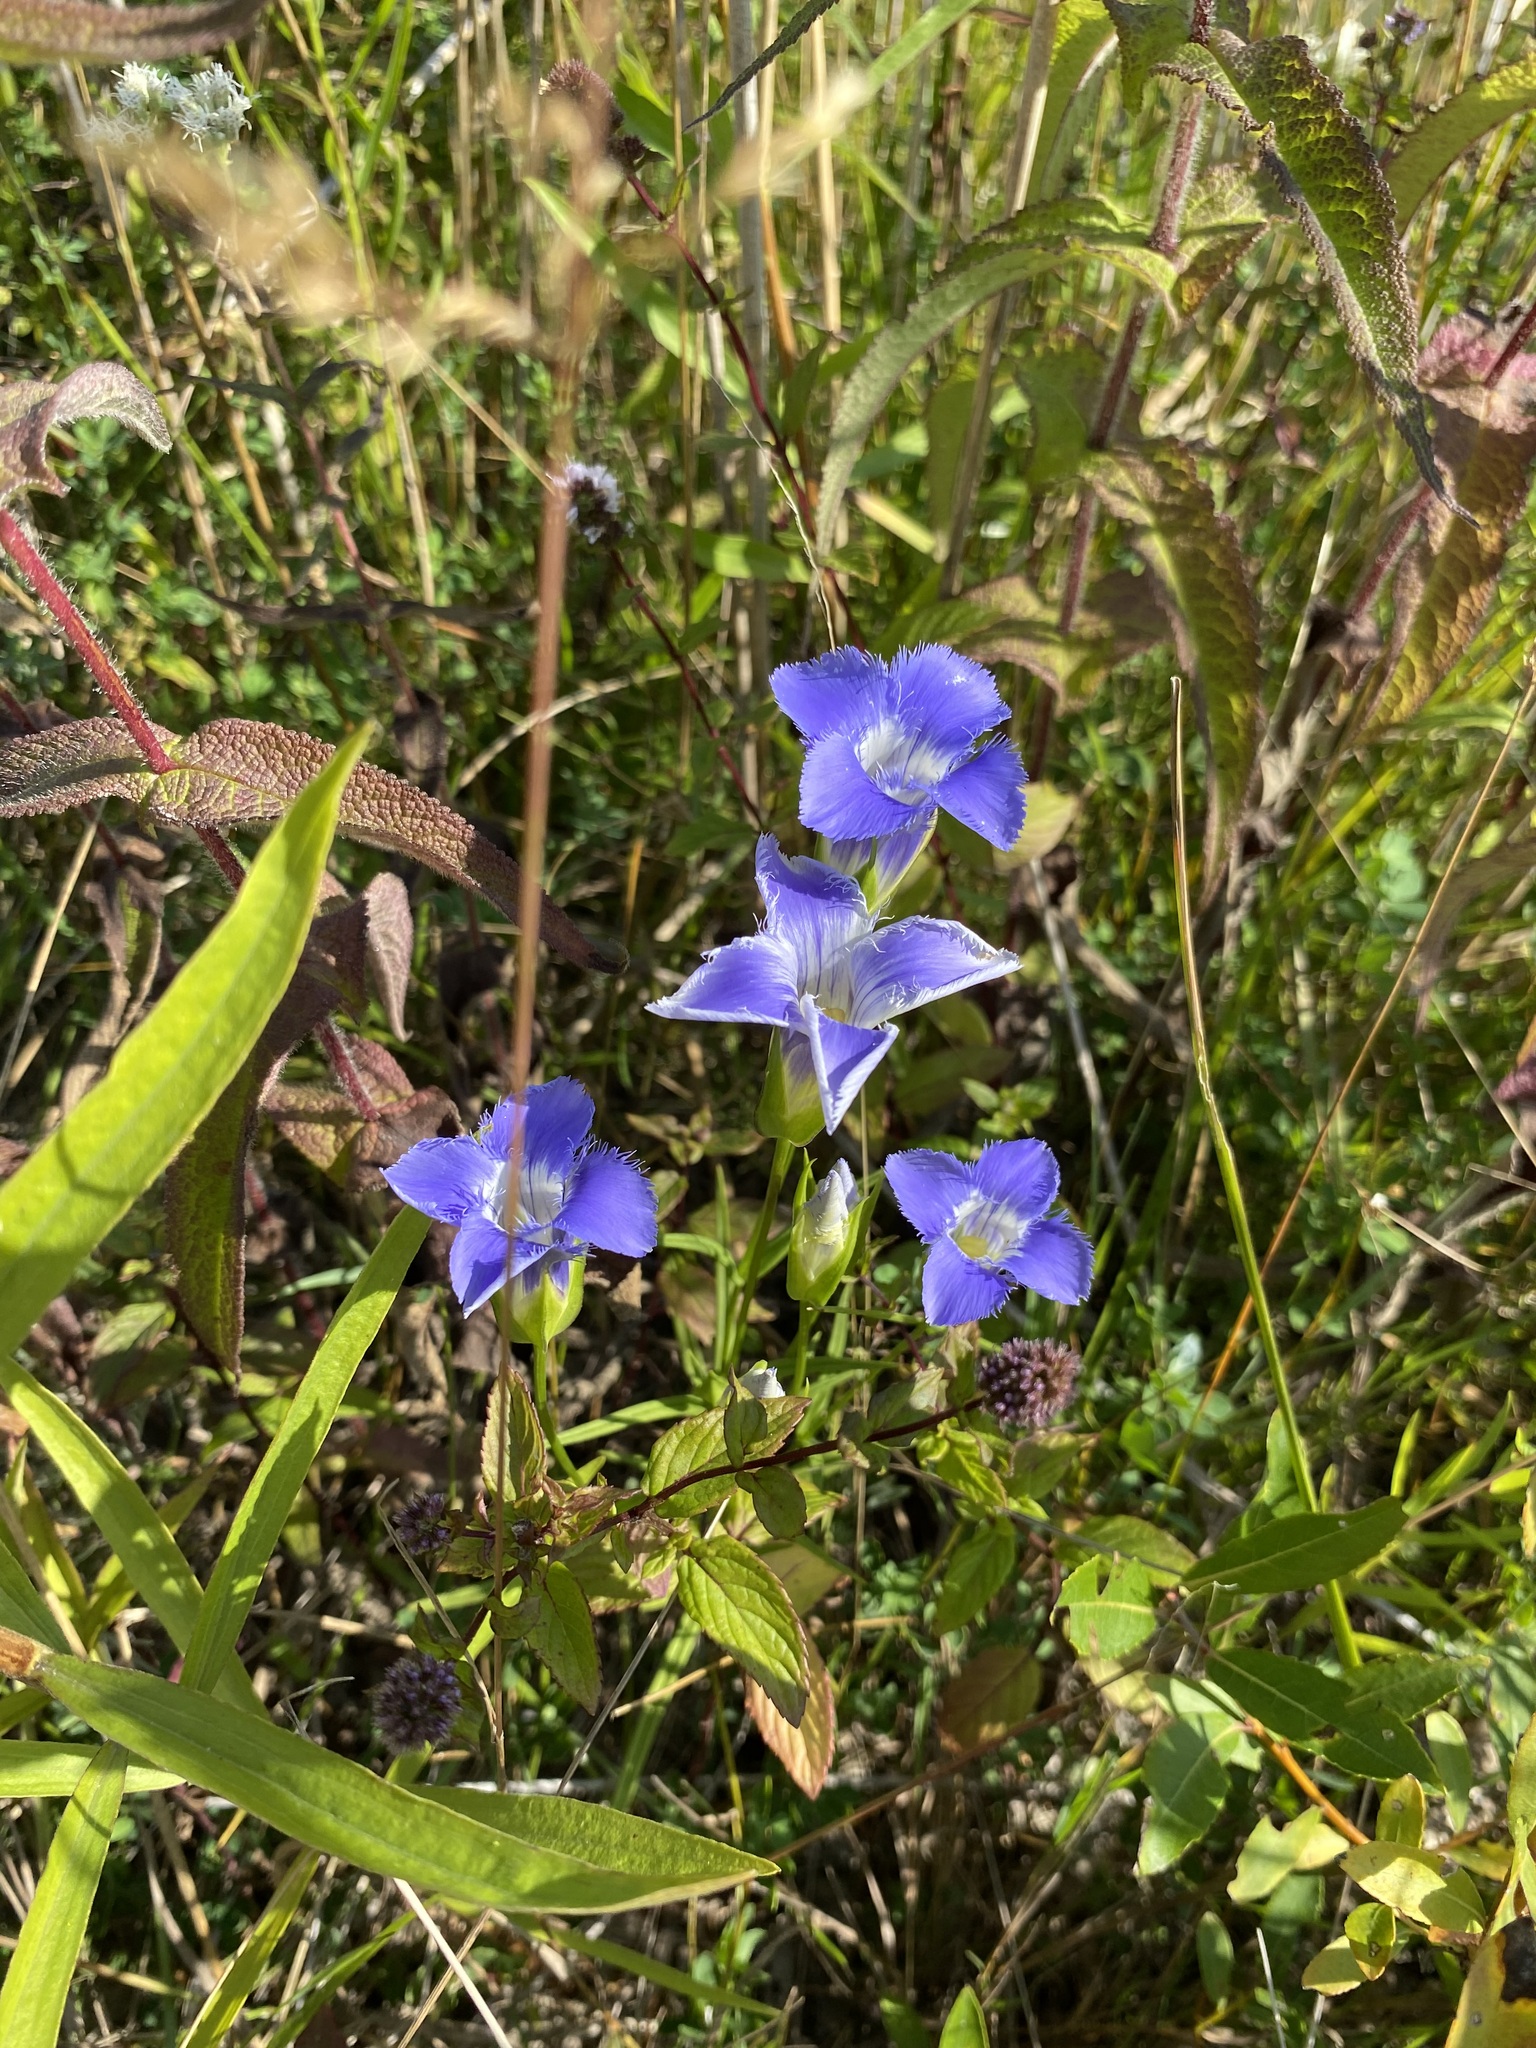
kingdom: Plantae
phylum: Tracheophyta
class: Magnoliopsida
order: Gentianales
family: Gentianaceae
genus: Gentianopsis
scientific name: Gentianopsis virgata
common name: Lesser fringed-gentian
